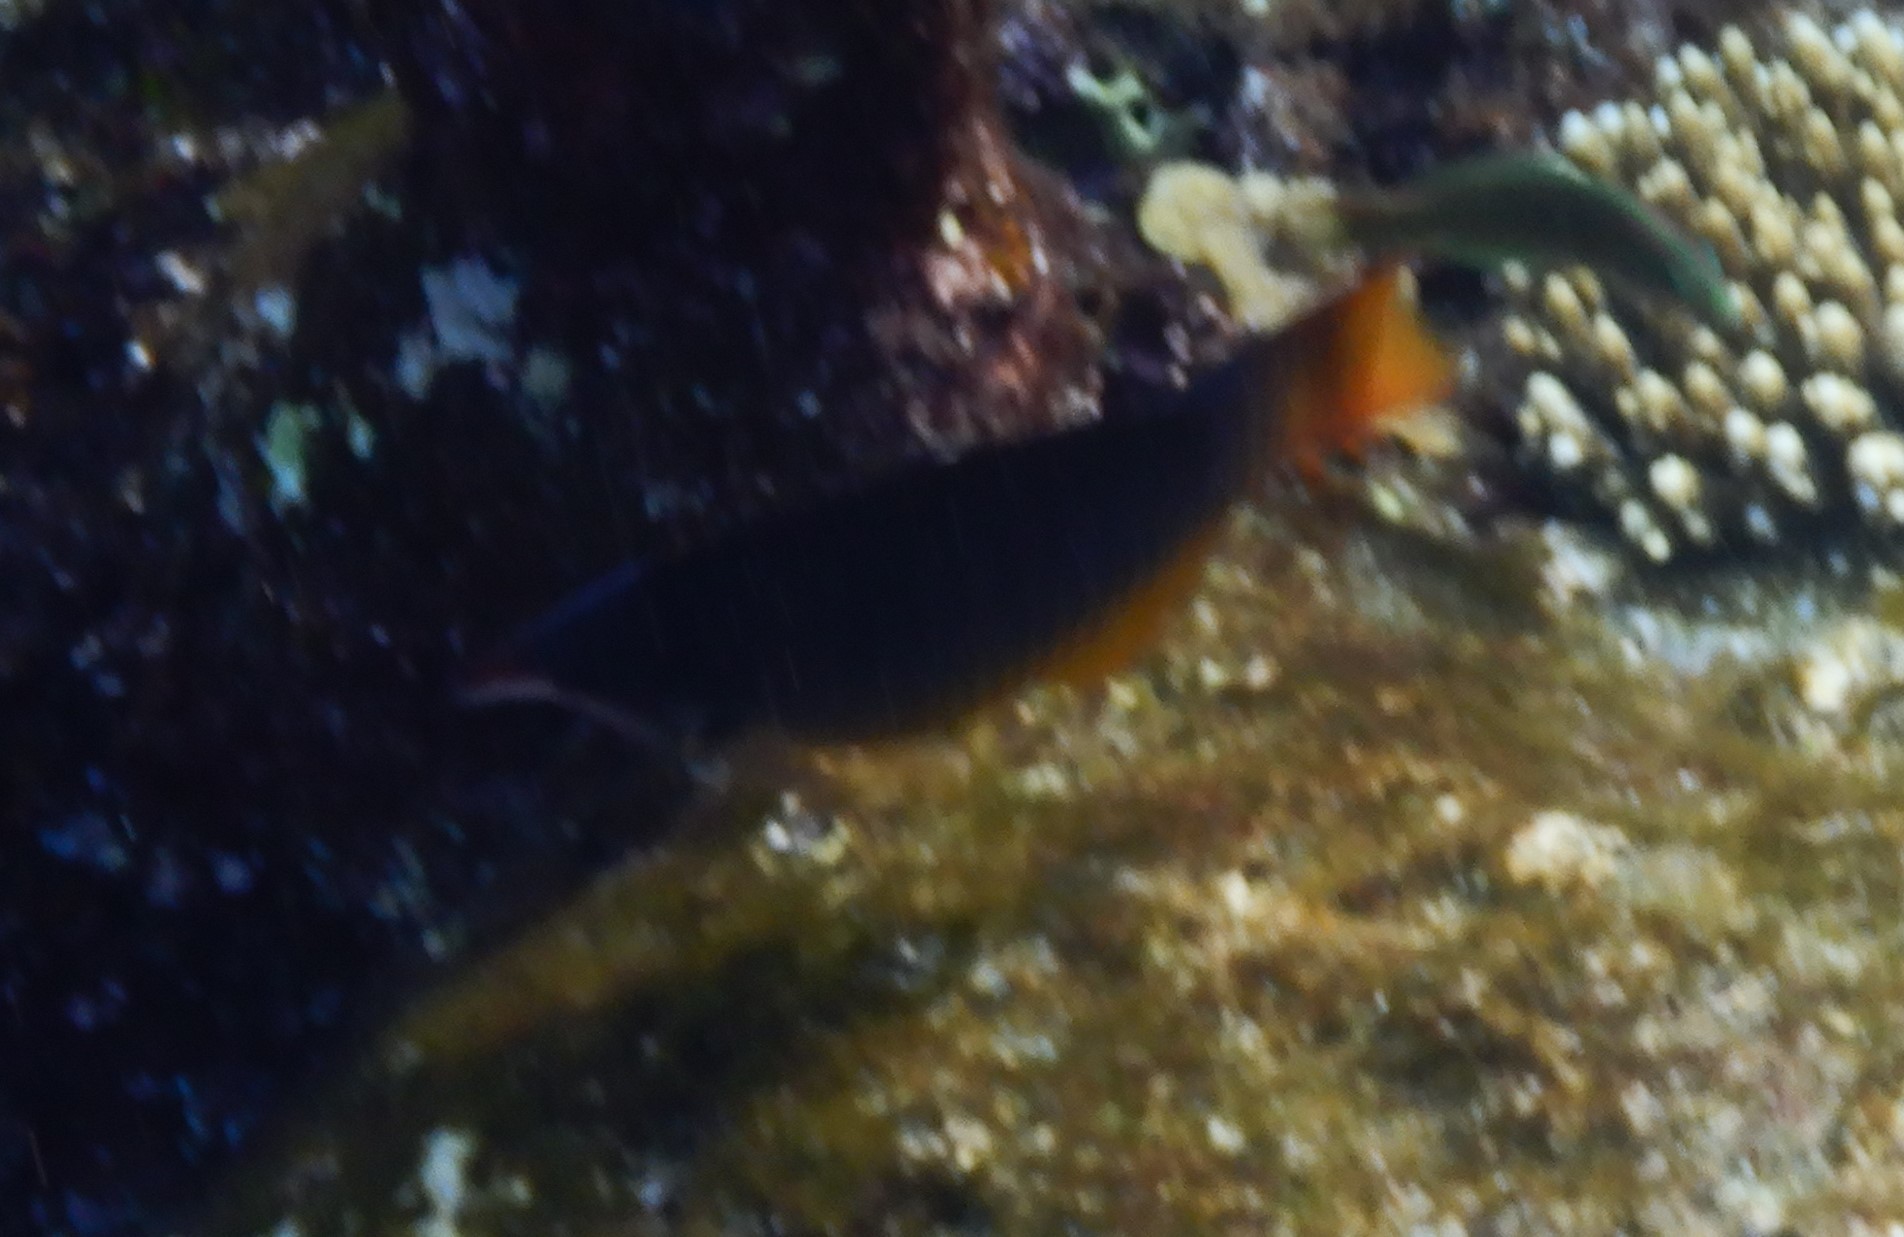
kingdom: Animalia
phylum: Chordata
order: Perciformes
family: Labridae
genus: Gomphosus
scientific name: Gomphosus klunzingeri
